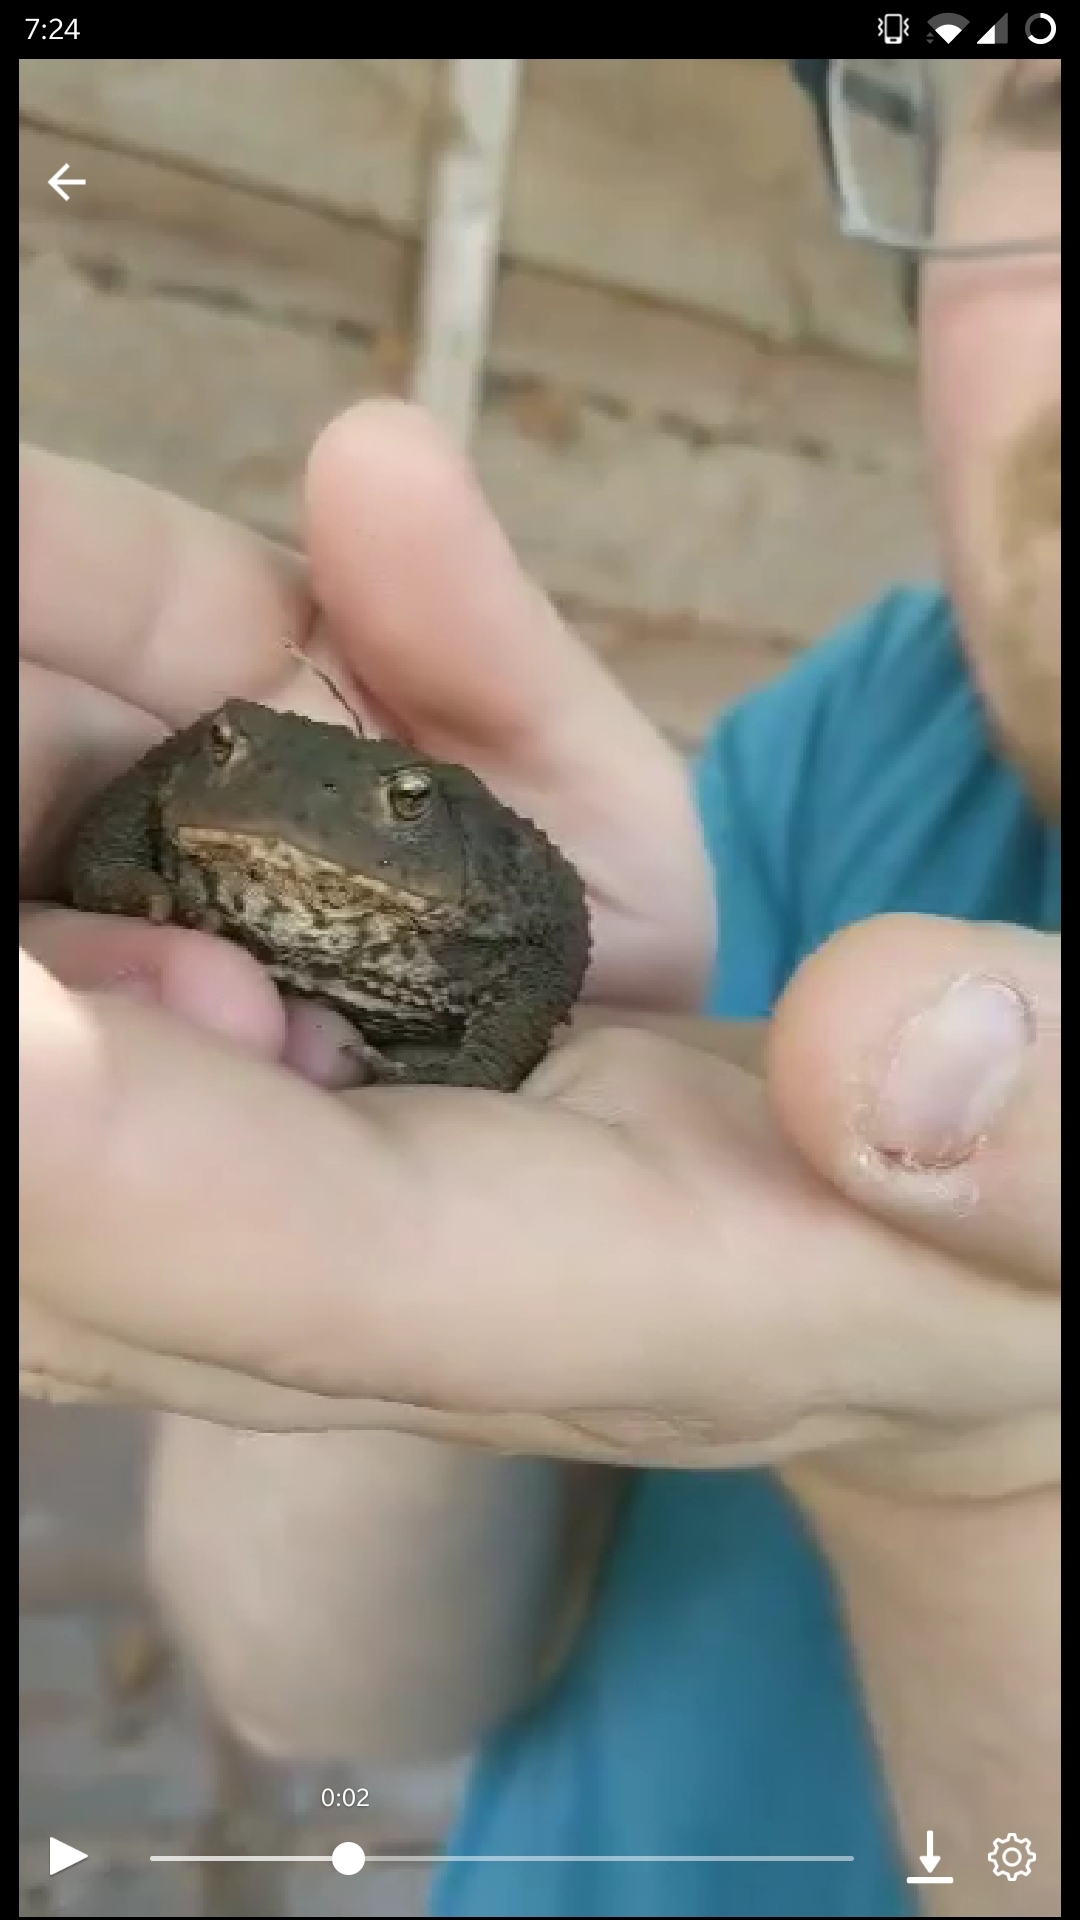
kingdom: Animalia
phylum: Chordata
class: Amphibia
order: Anura
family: Bufonidae
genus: Bufo
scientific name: Bufo bufo
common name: Common toad
